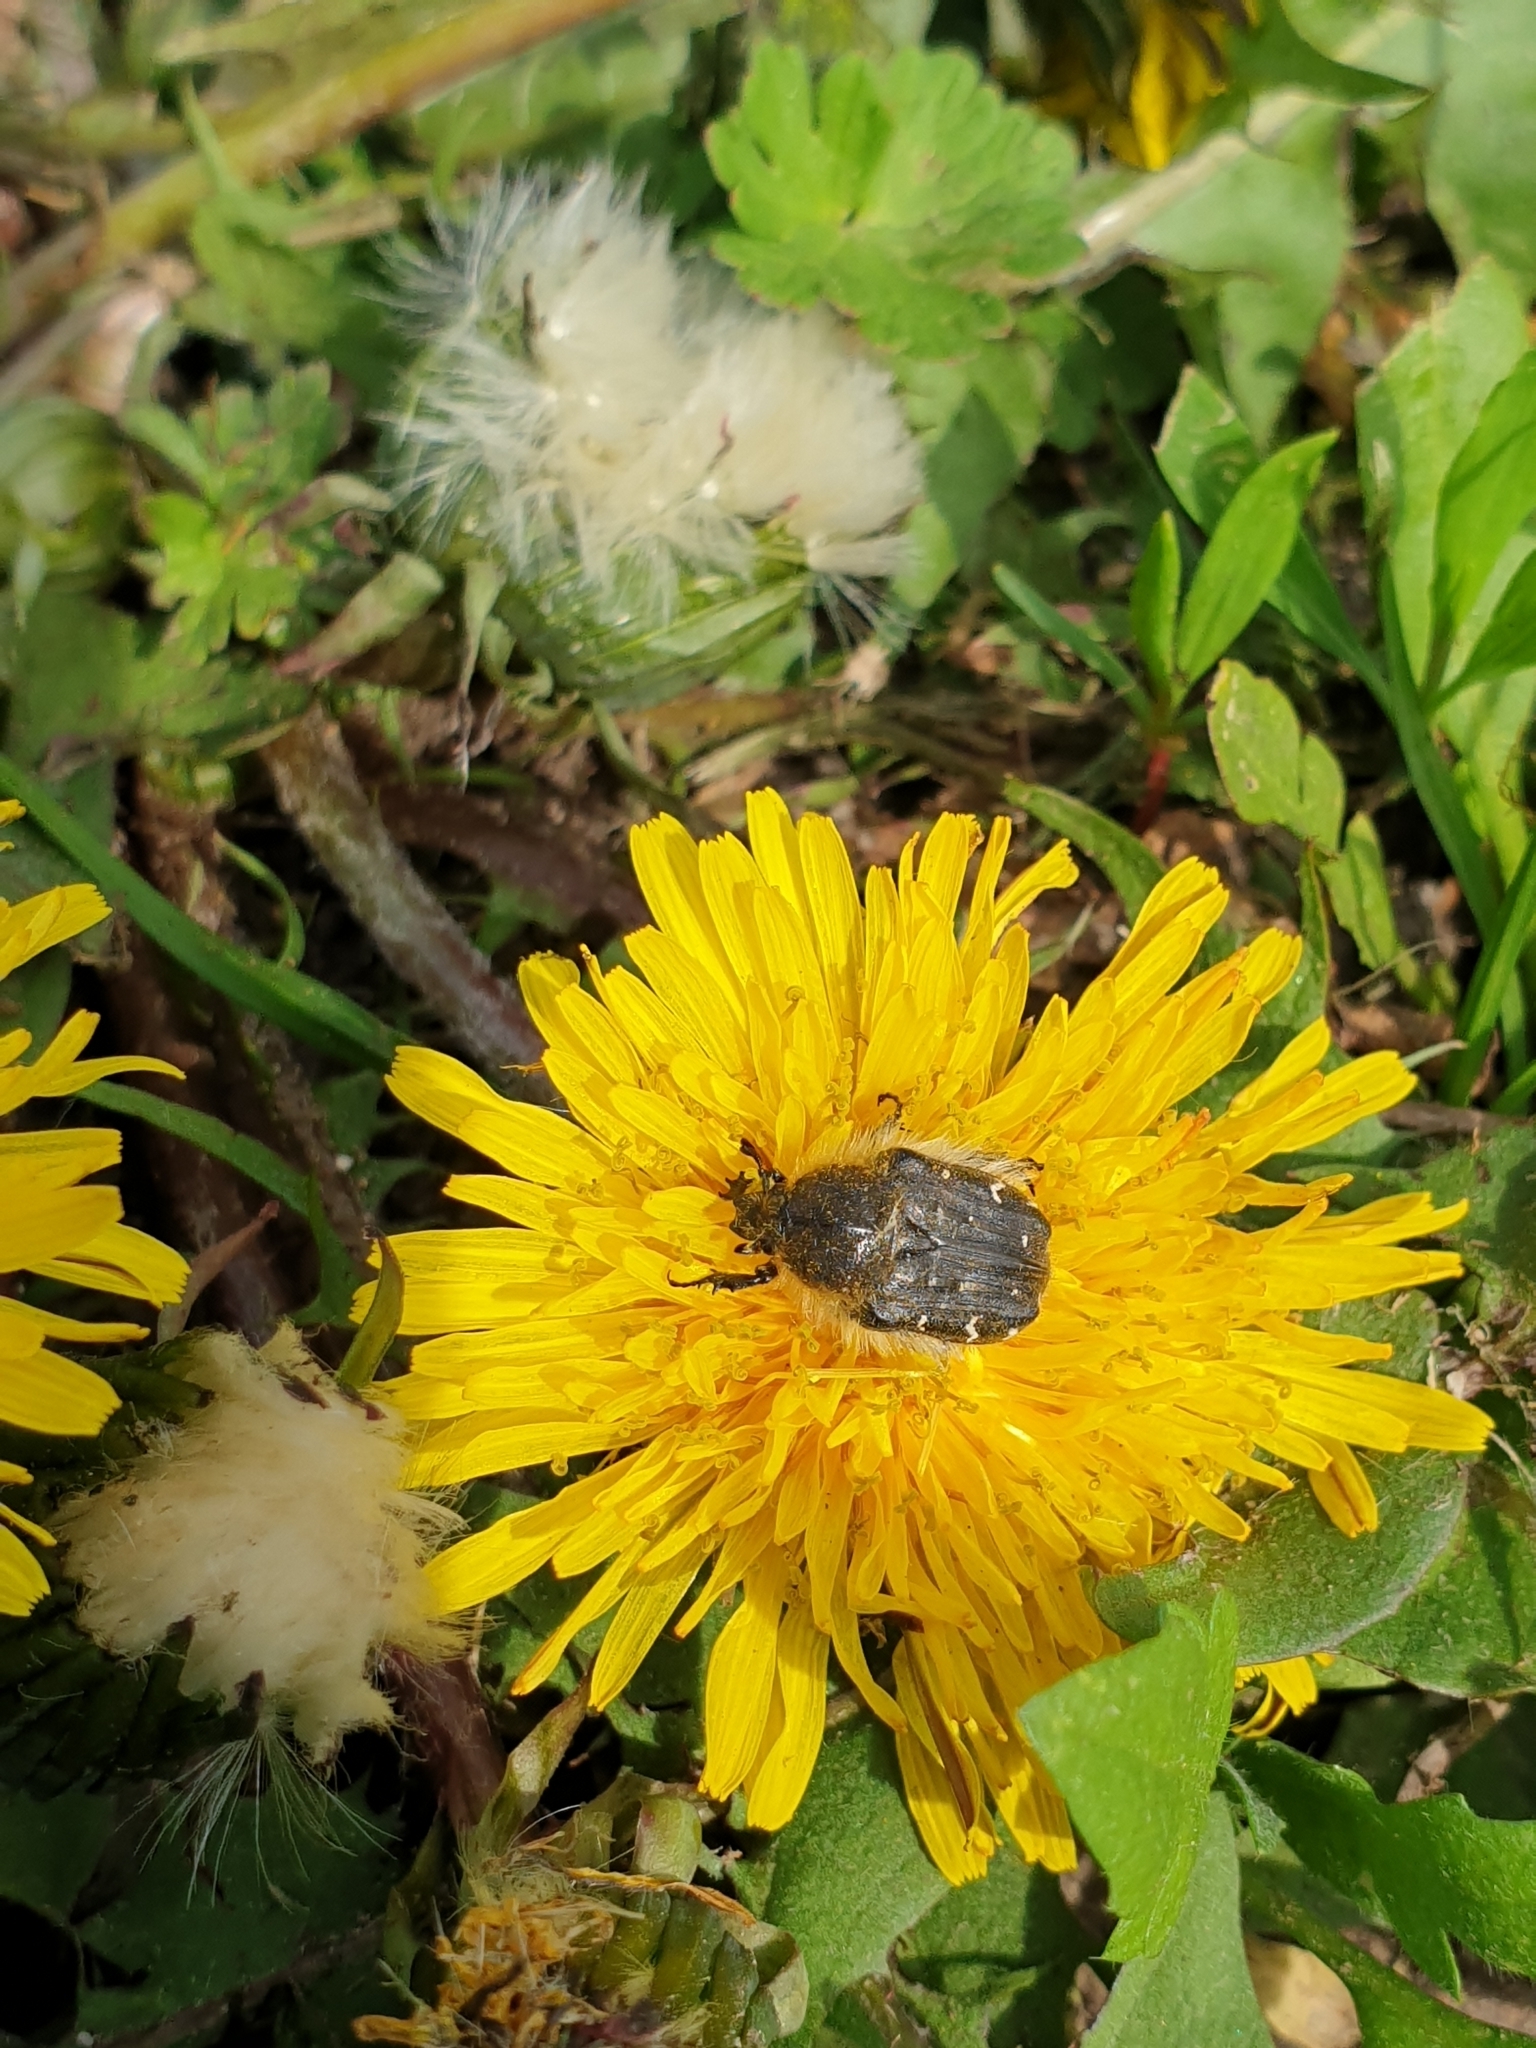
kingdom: Animalia
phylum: Arthropoda
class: Insecta
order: Coleoptera
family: Scarabaeidae
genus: Tropinota
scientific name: Tropinota hirta
